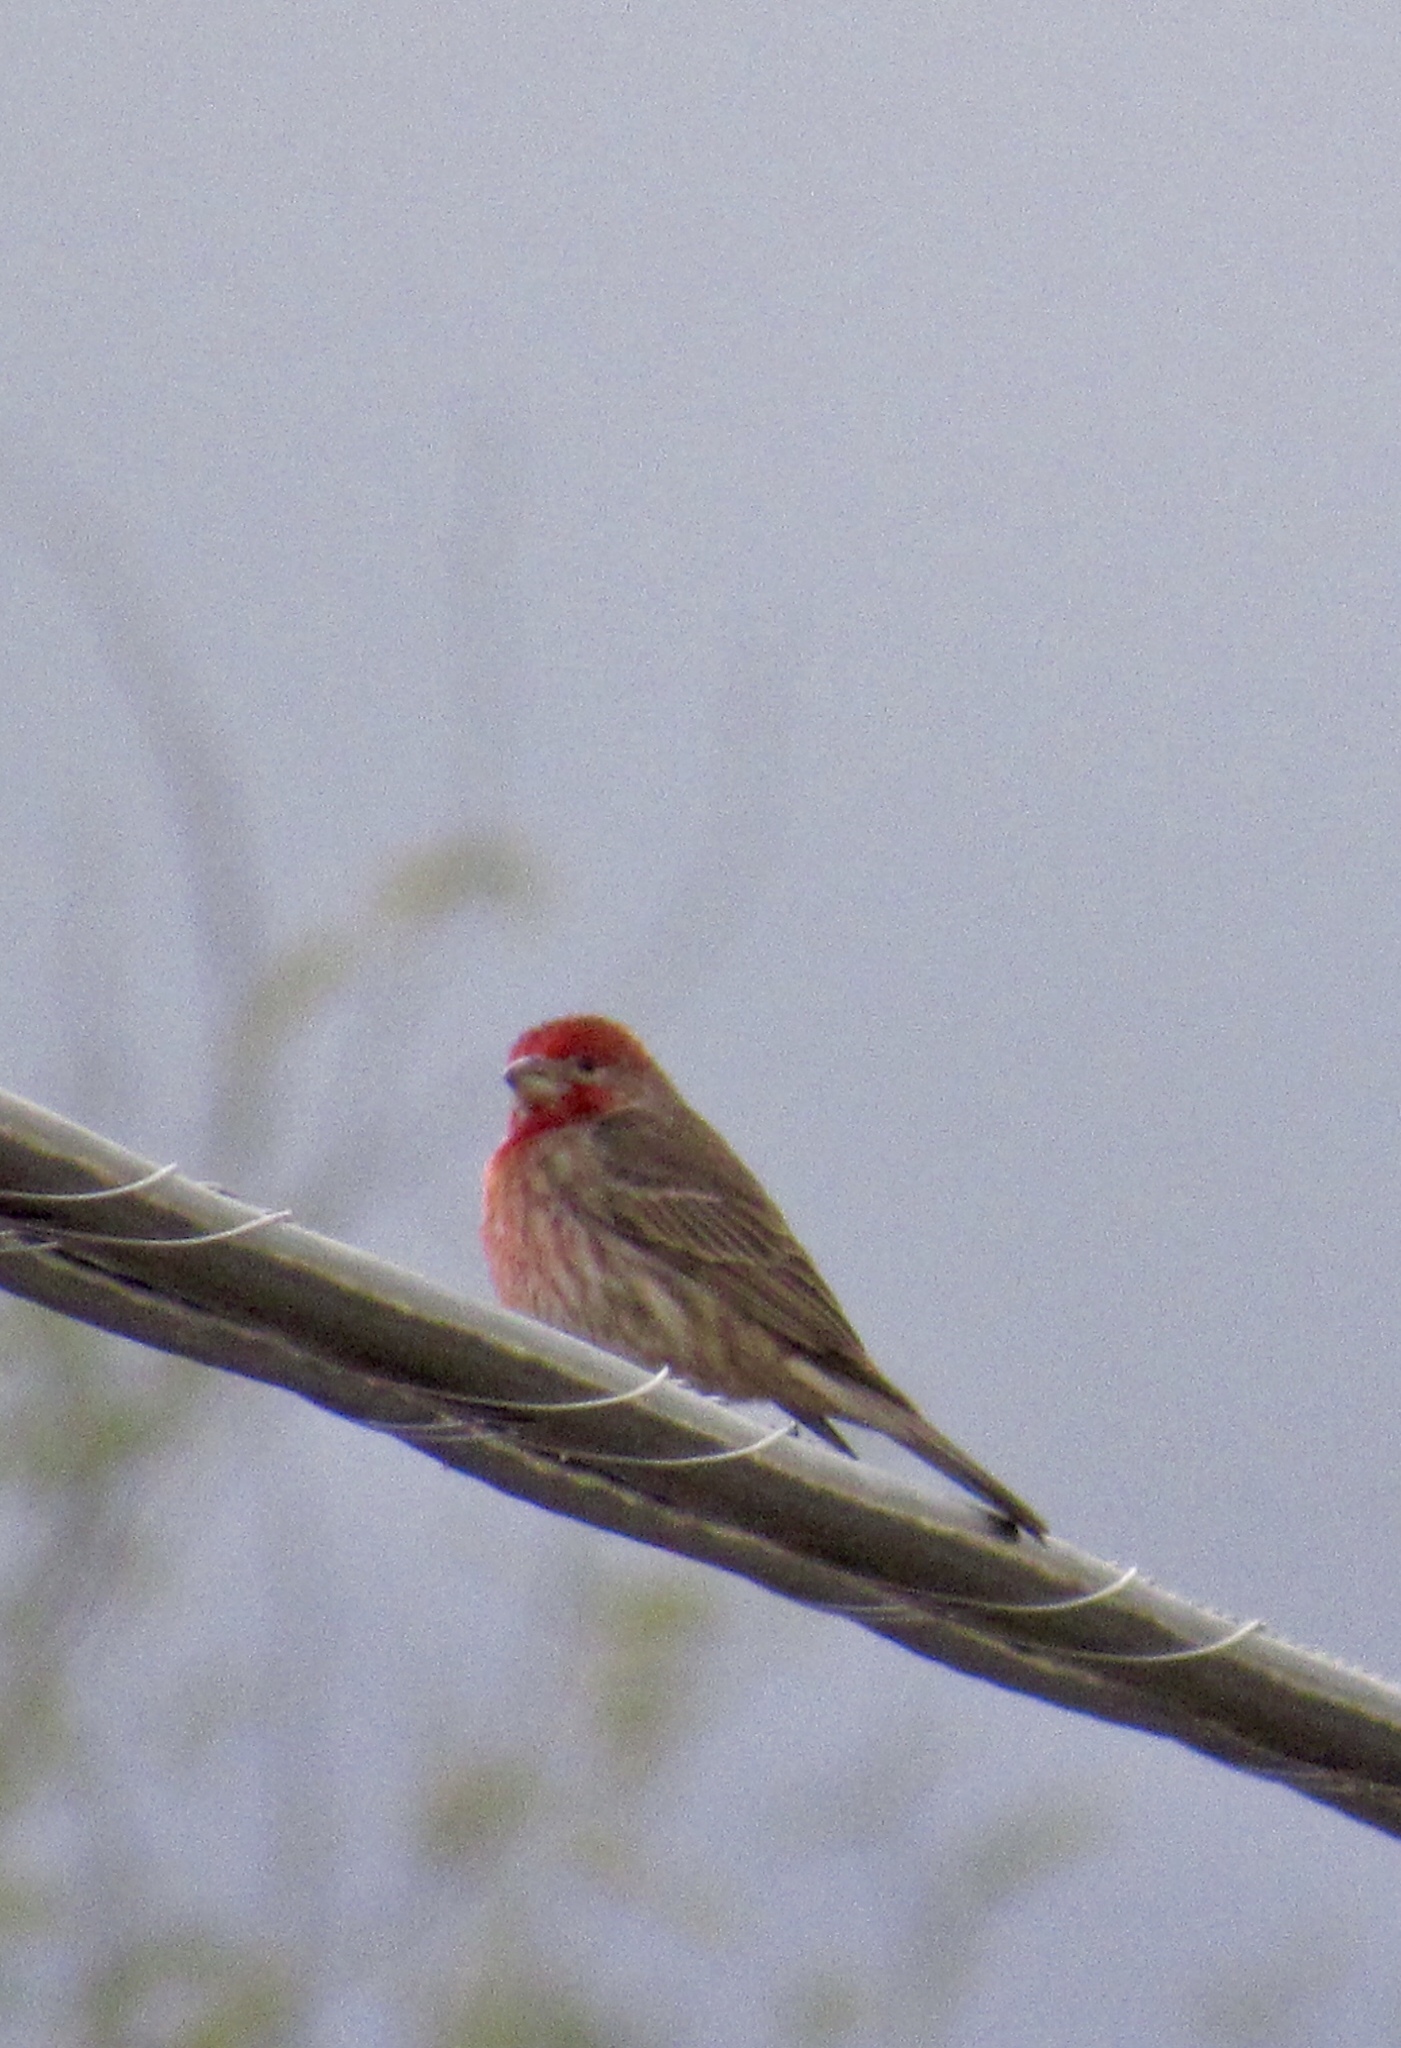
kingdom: Animalia
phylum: Chordata
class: Aves
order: Passeriformes
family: Fringillidae
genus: Haemorhous
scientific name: Haemorhous mexicanus
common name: House finch
